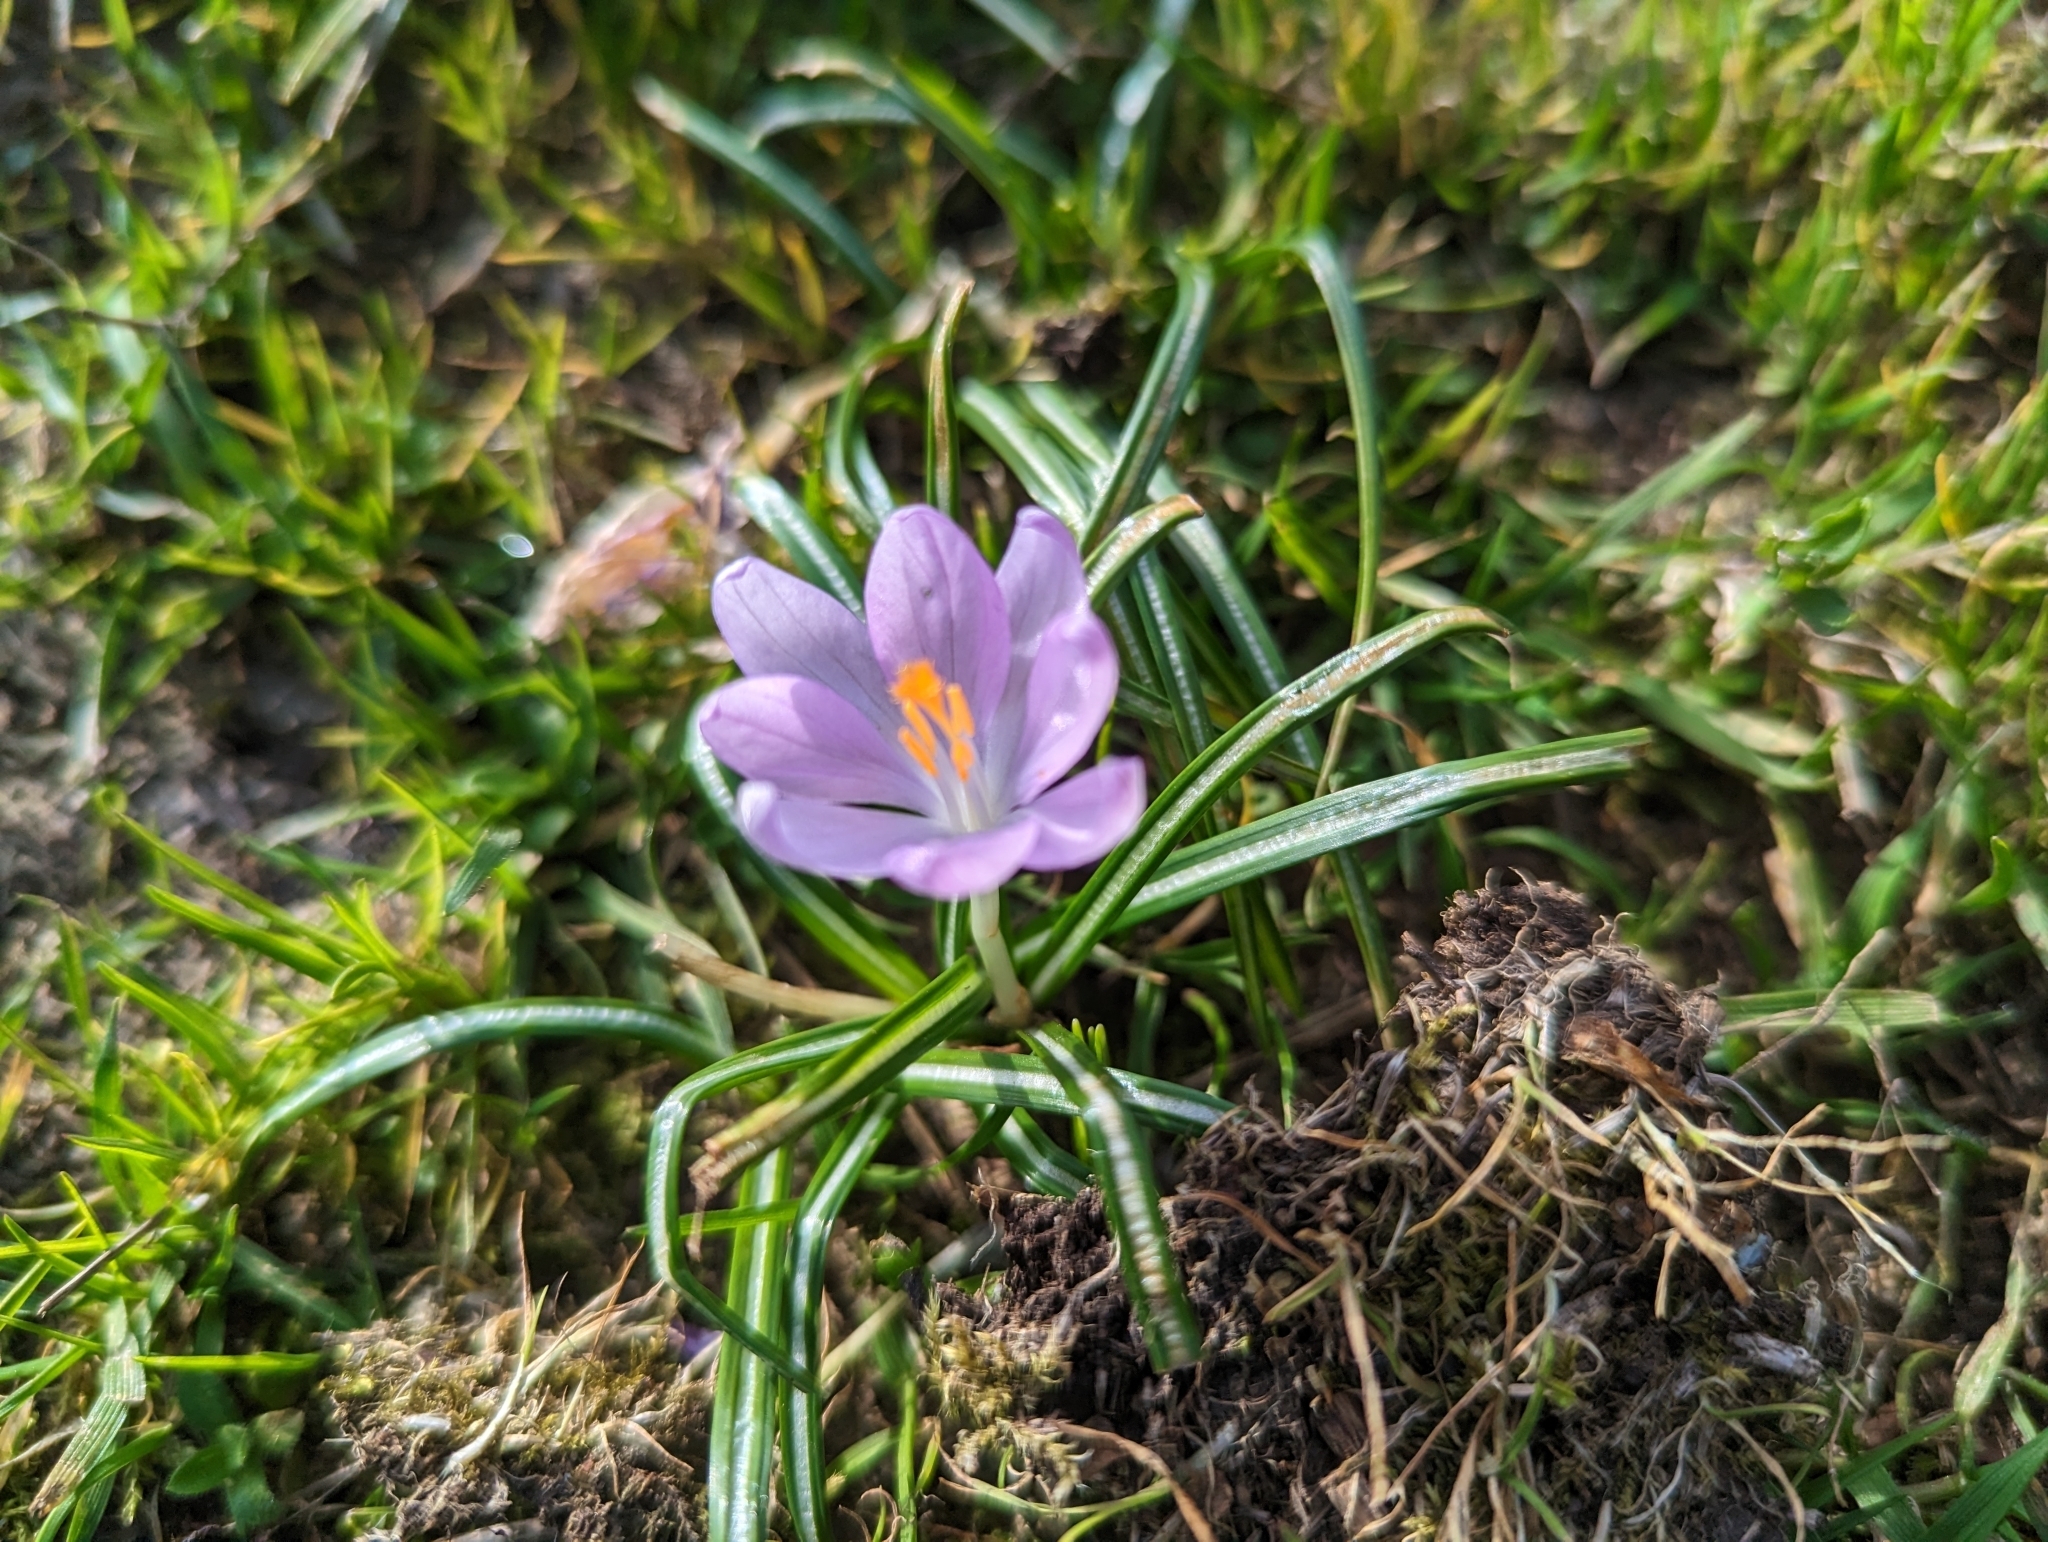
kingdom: Plantae
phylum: Tracheophyta
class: Liliopsida
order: Asparagales
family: Iridaceae
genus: Crocus
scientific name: Crocus tommasinianus
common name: Early crocus
